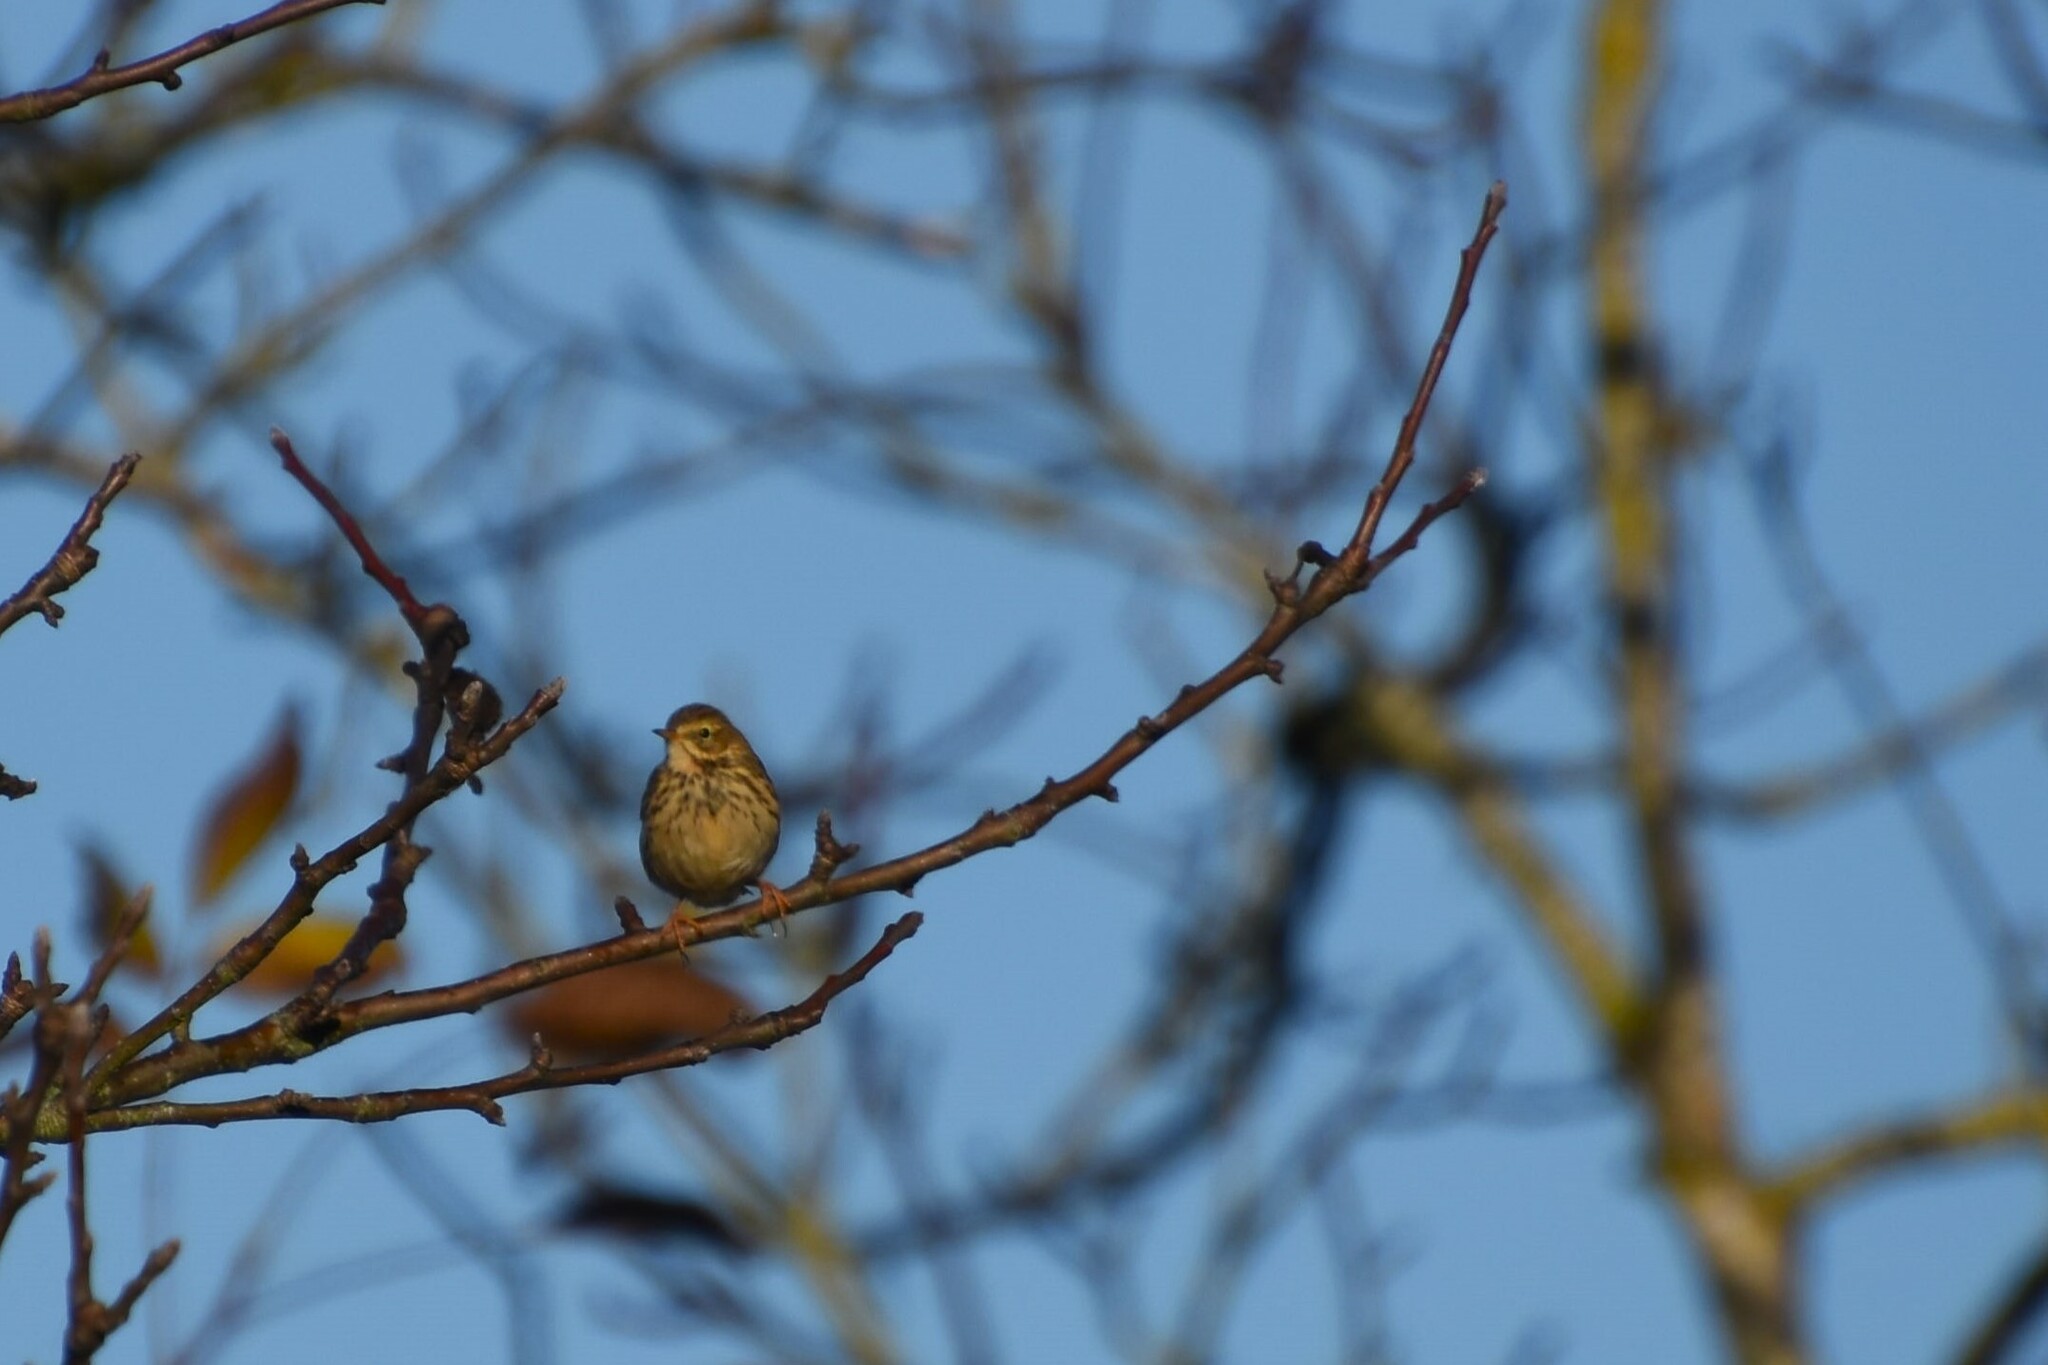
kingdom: Animalia
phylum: Chordata
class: Aves
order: Passeriformes
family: Motacillidae
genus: Anthus
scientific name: Anthus pratensis
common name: Meadow pipit
